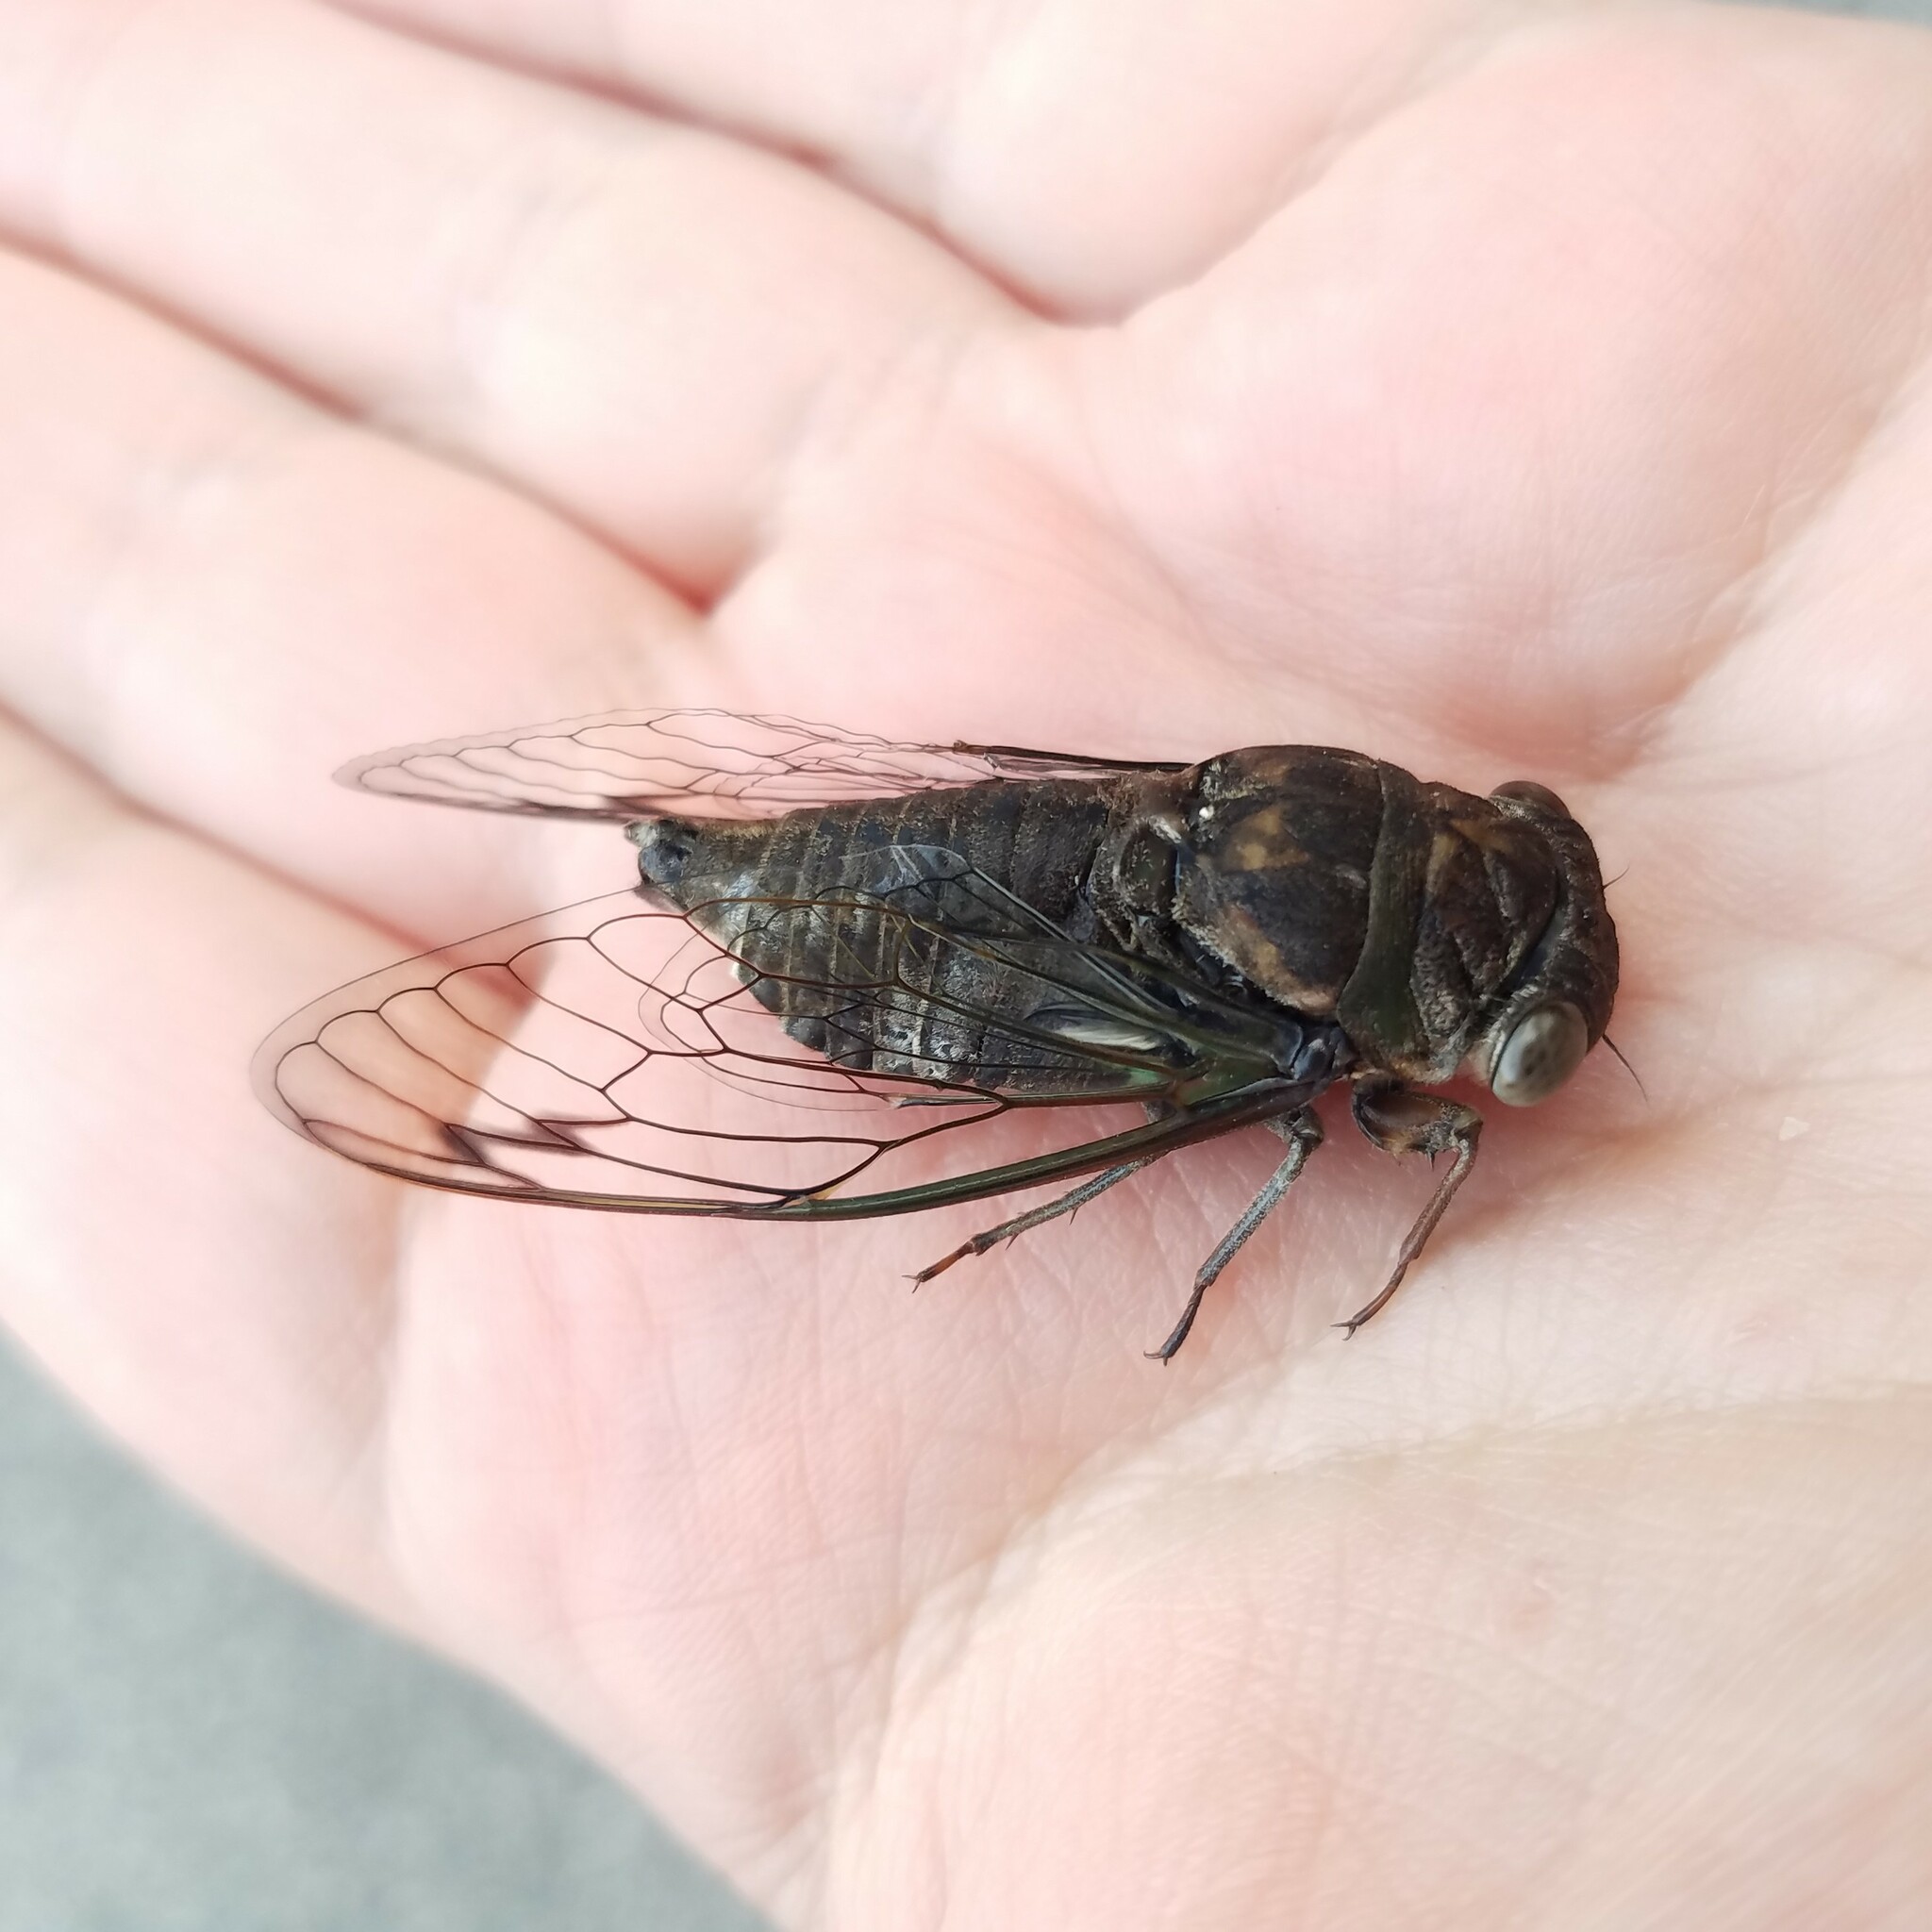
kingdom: Animalia
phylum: Arthropoda
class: Insecta
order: Hemiptera
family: Cicadidae
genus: Neotibicen
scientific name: Neotibicen davisi
